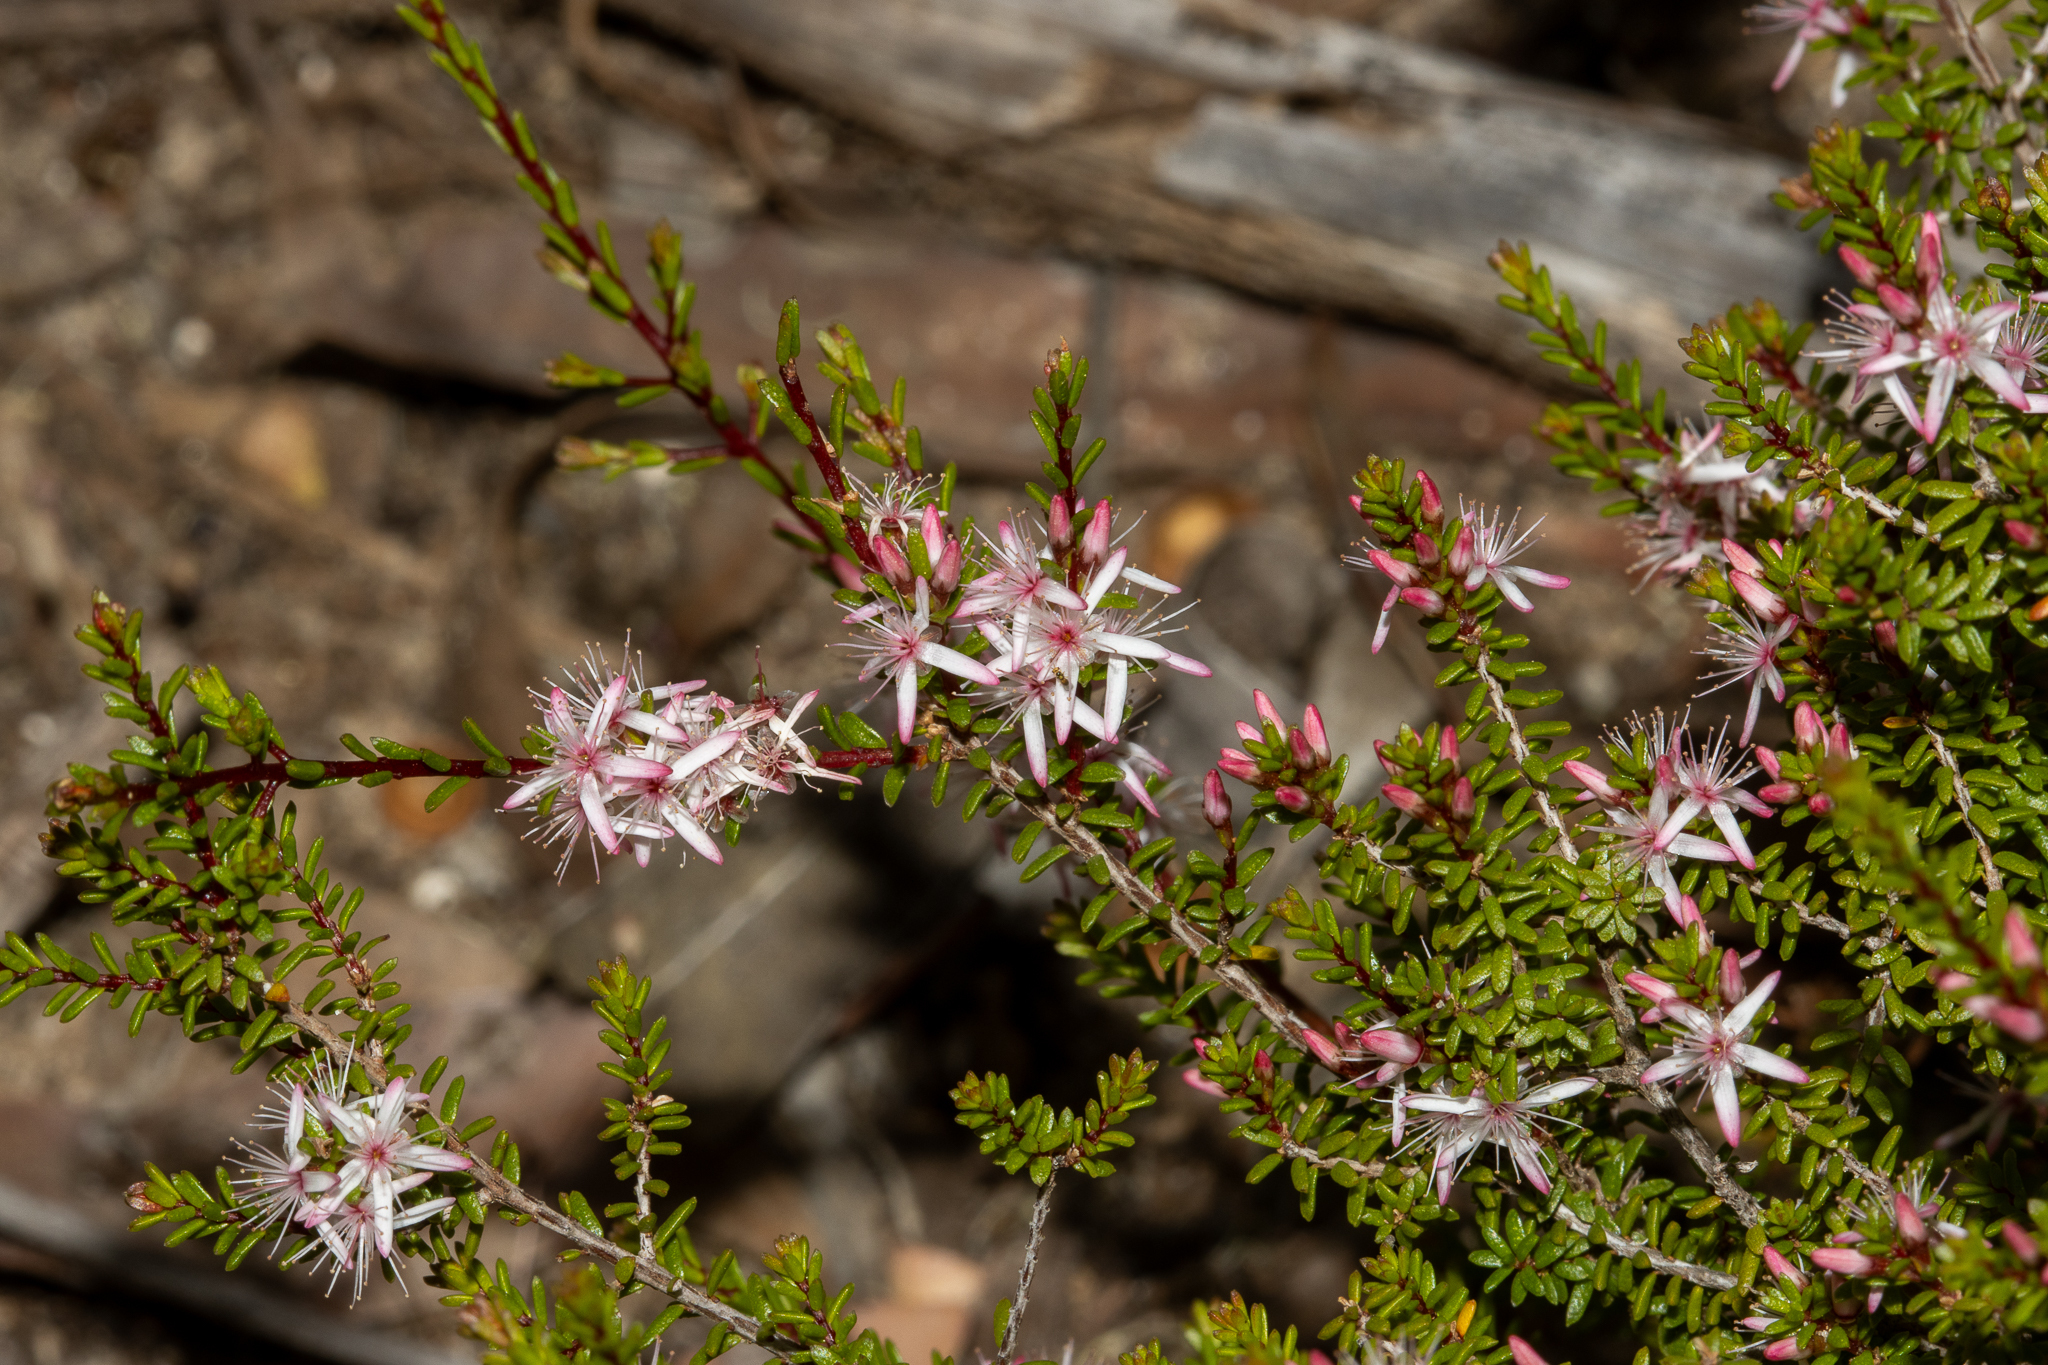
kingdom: Plantae
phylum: Tracheophyta
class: Magnoliopsida
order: Myrtales
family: Myrtaceae
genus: Calytrix
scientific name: Calytrix glaberrima
